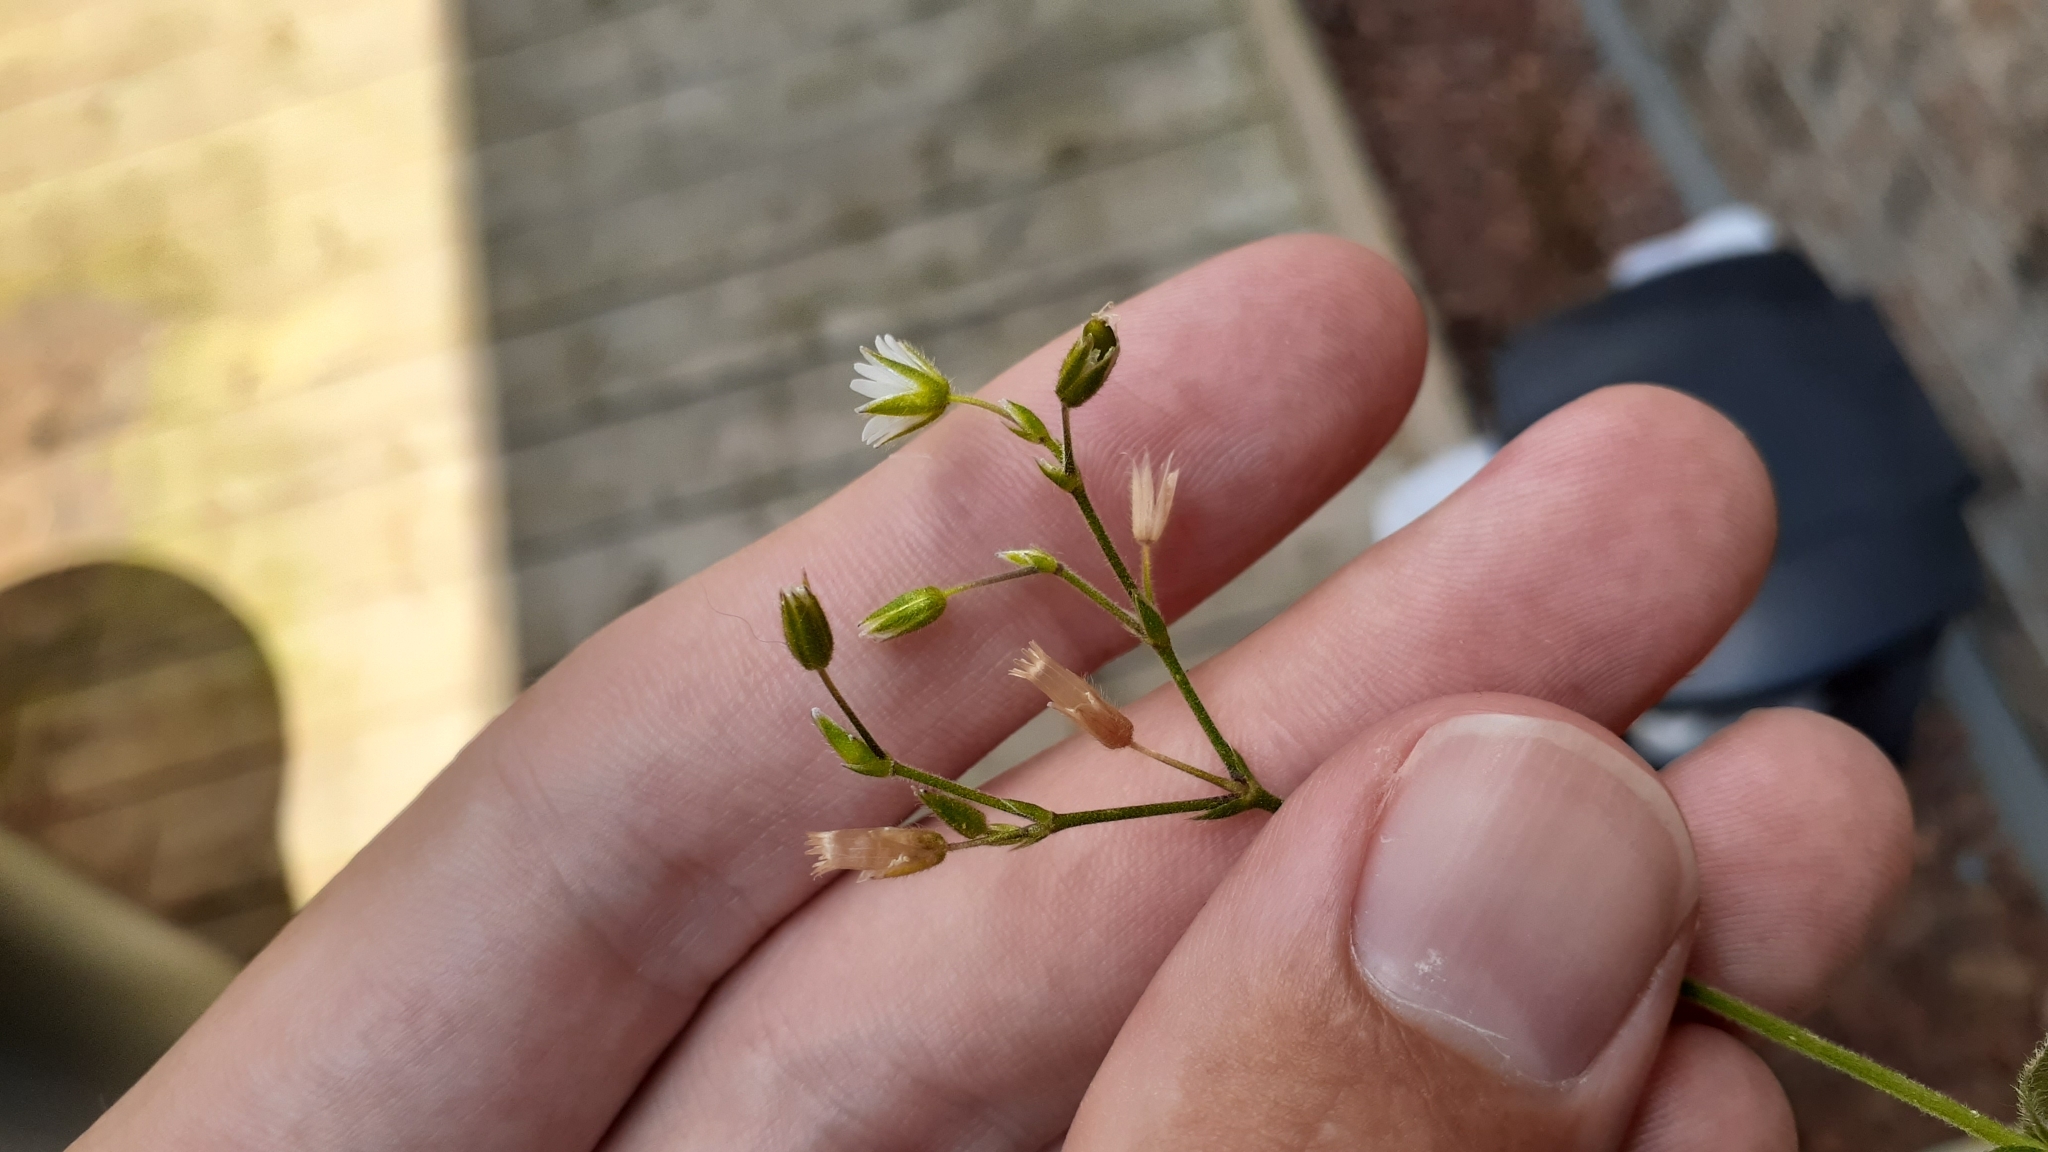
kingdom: Plantae
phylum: Tracheophyta
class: Magnoliopsida
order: Caryophyllales
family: Caryophyllaceae
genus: Cerastium
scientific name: Cerastium fontanum
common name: Common mouse-ear
